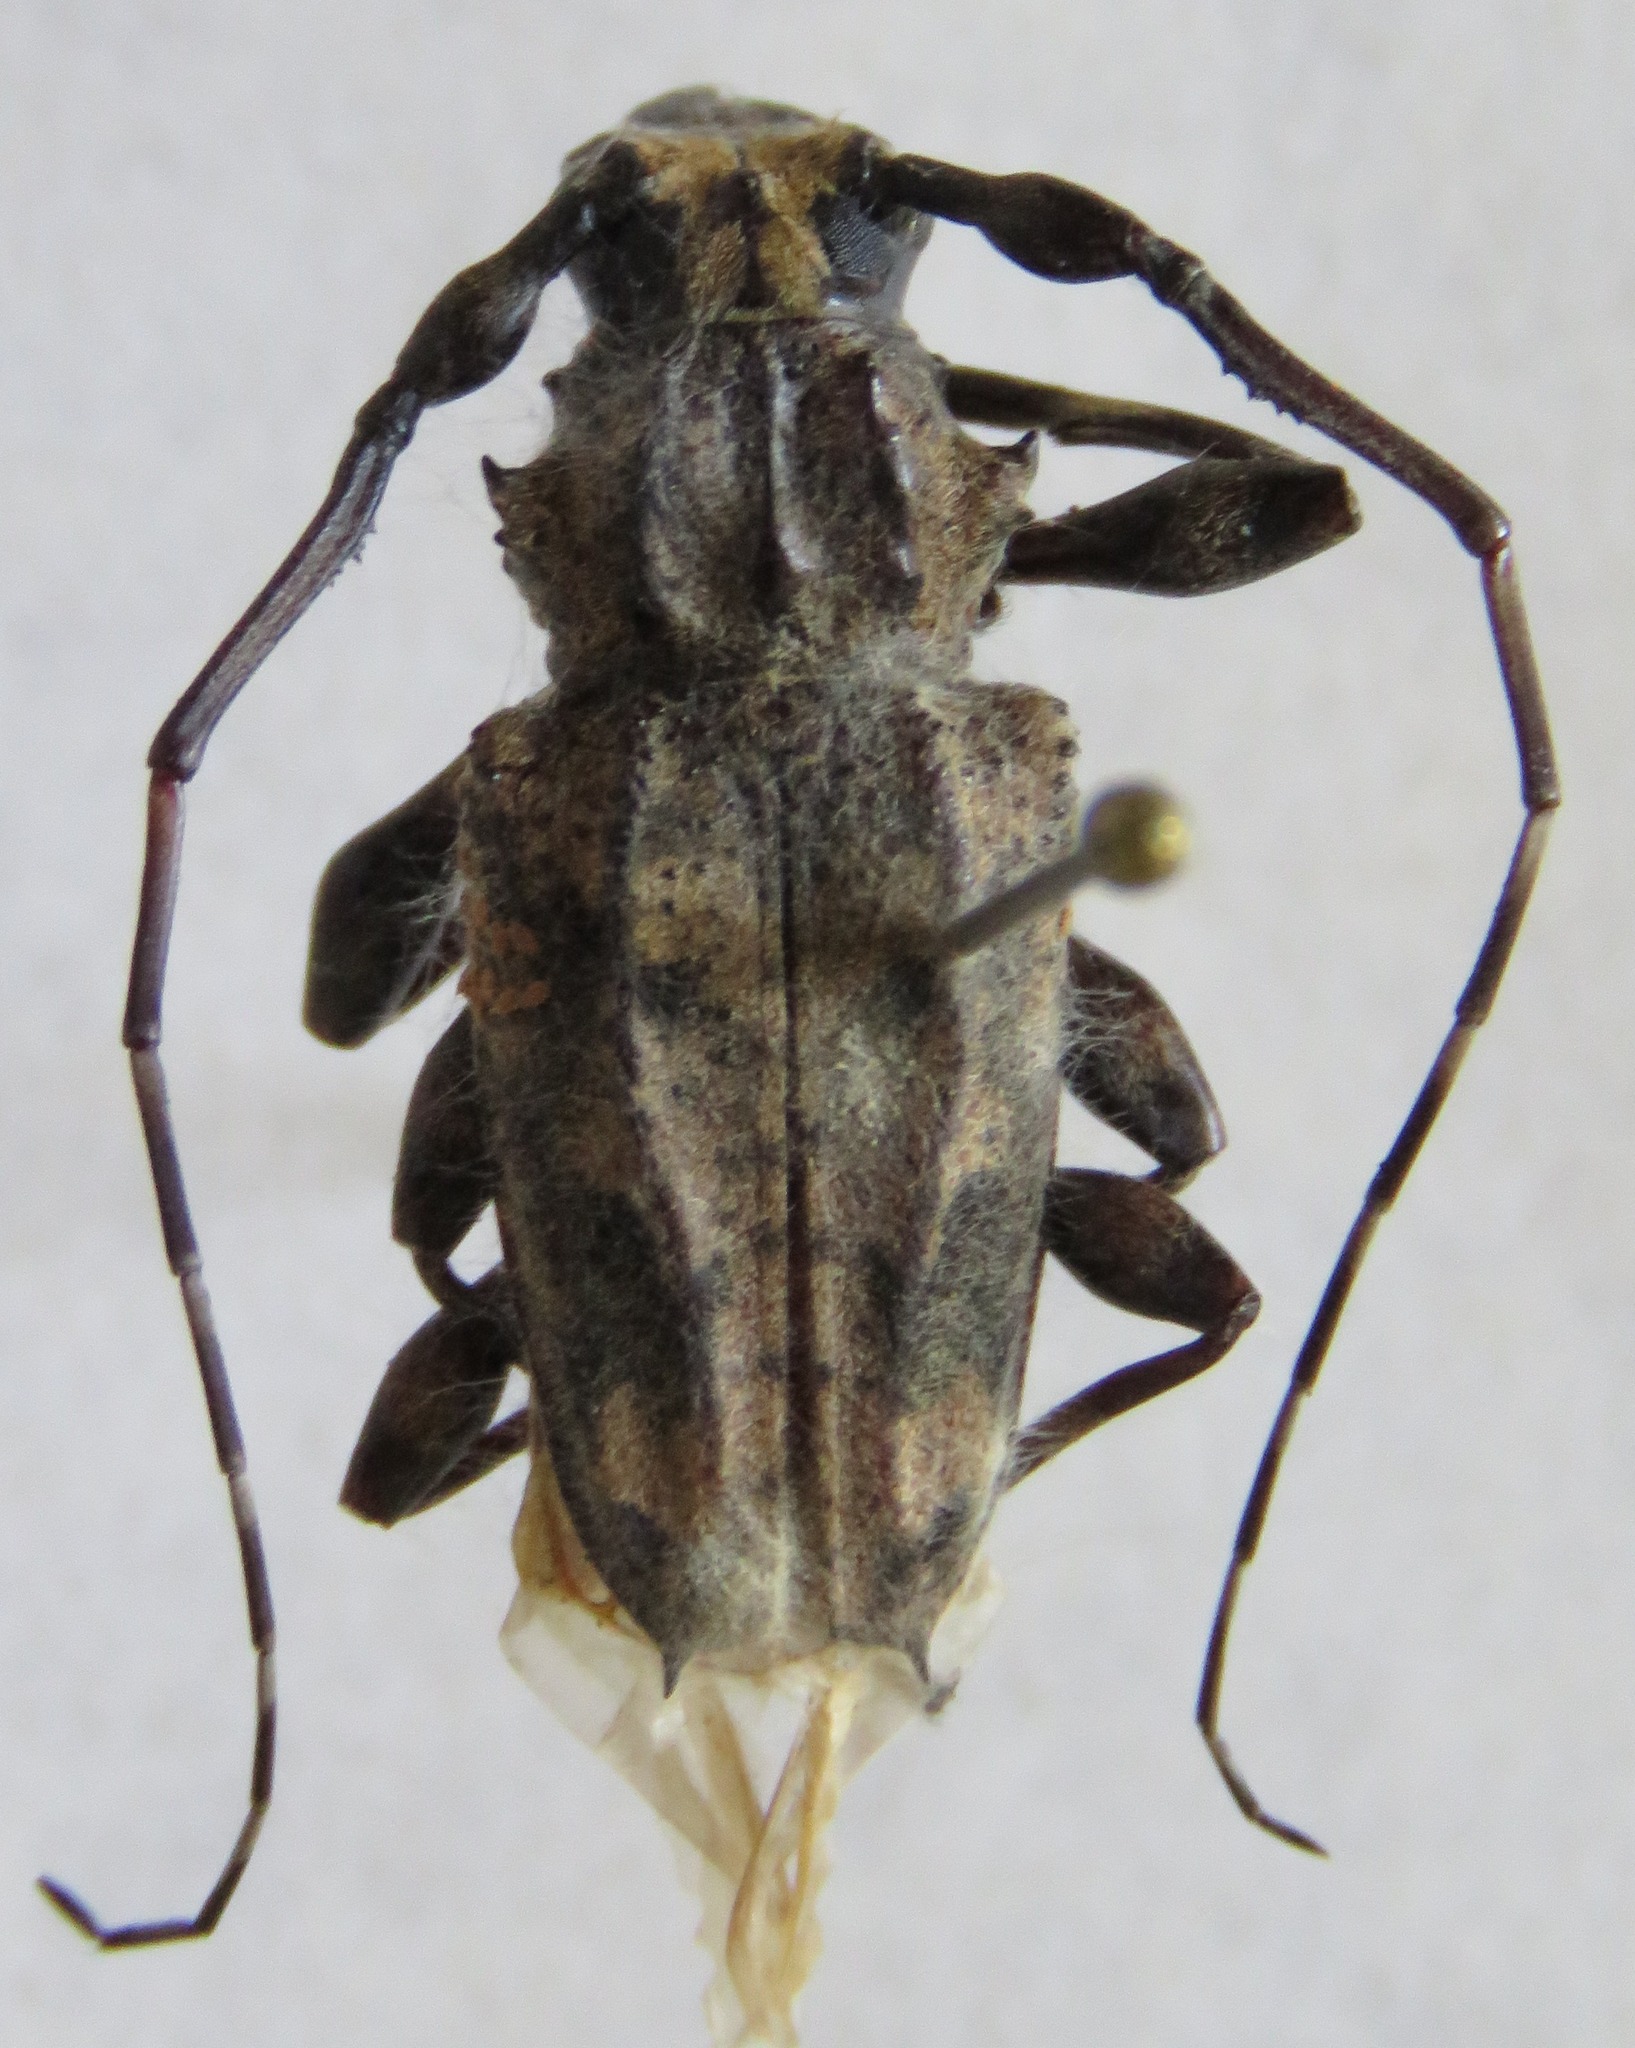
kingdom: Animalia
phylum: Arthropoda
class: Insecta
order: Coleoptera
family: Cerambycidae
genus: Steirastoma
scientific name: Steirastoma melanogenys
